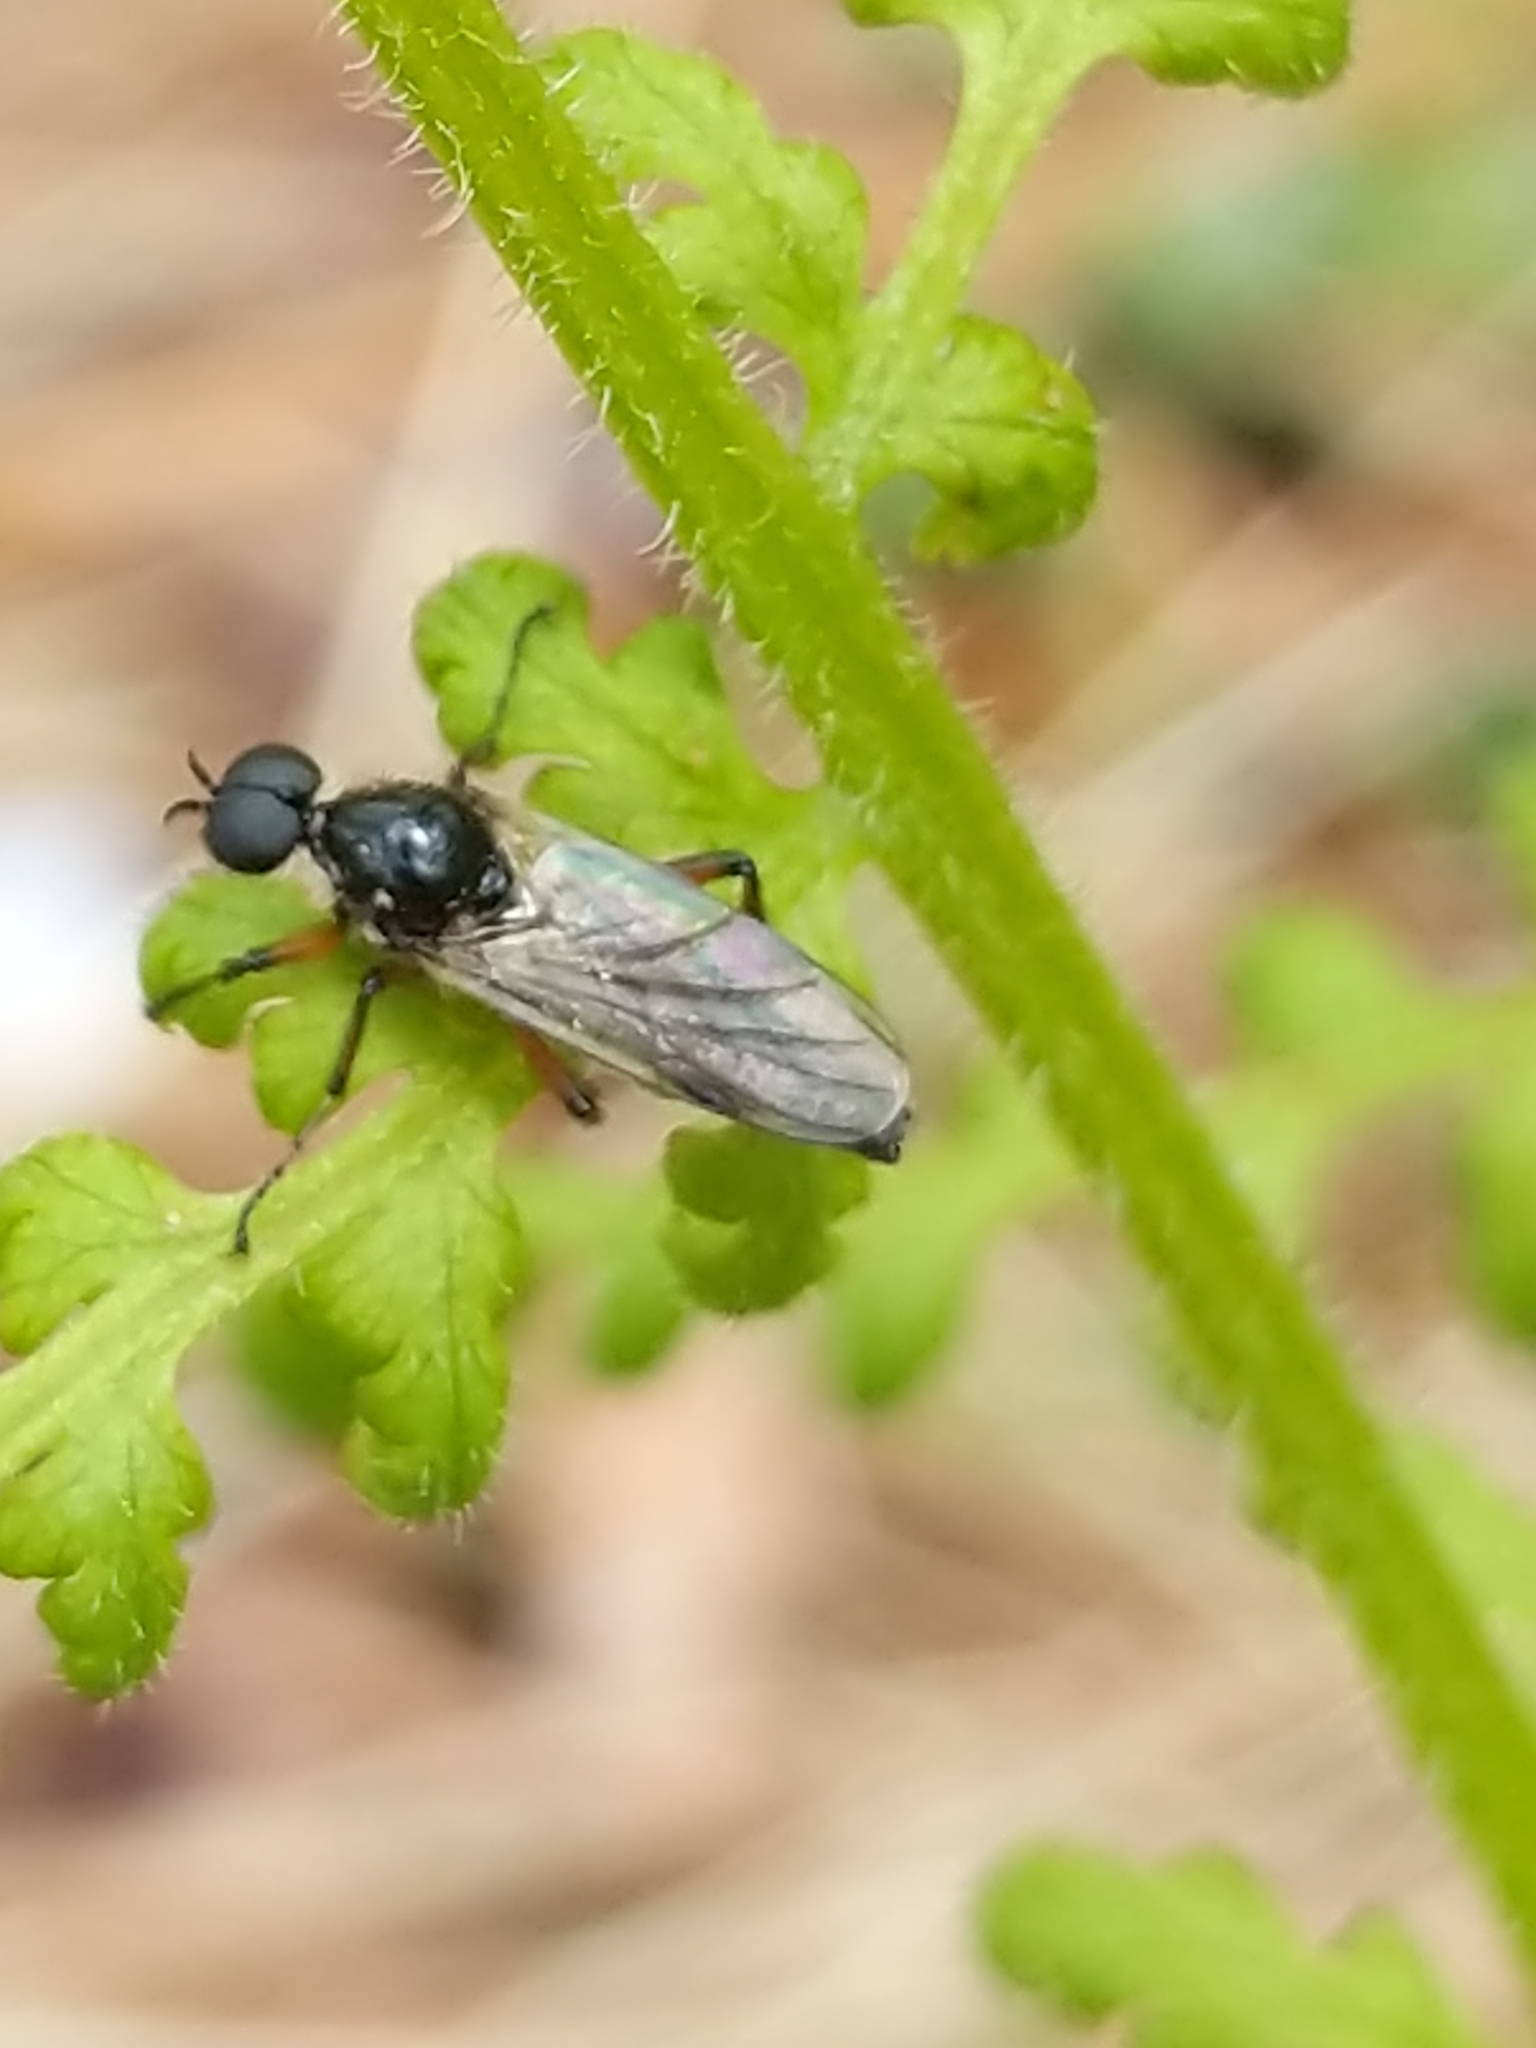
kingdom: Animalia
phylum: Arthropoda
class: Insecta
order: Diptera
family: Bibionidae
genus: Bibio
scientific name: Bibio articulatus
